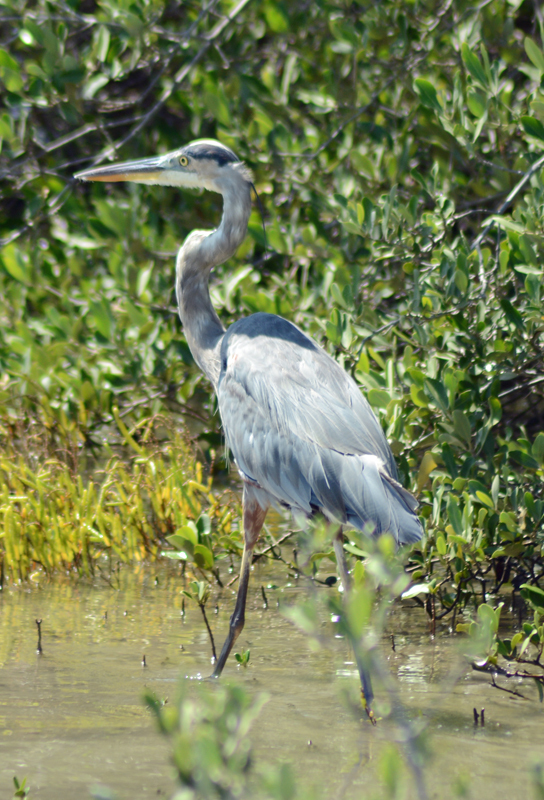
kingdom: Animalia
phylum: Chordata
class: Aves
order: Pelecaniformes
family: Ardeidae
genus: Ardea
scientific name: Ardea herodias
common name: Great blue heron
